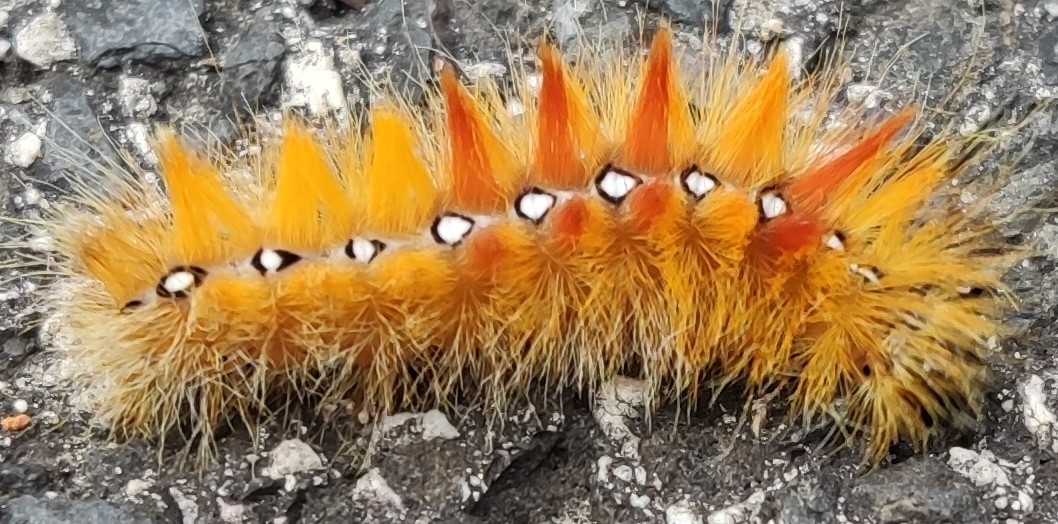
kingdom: Animalia
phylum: Arthropoda
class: Insecta
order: Lepidoptera
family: Noctuidae
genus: Acronicta
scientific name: Acronicta aceris
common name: Sycamore
